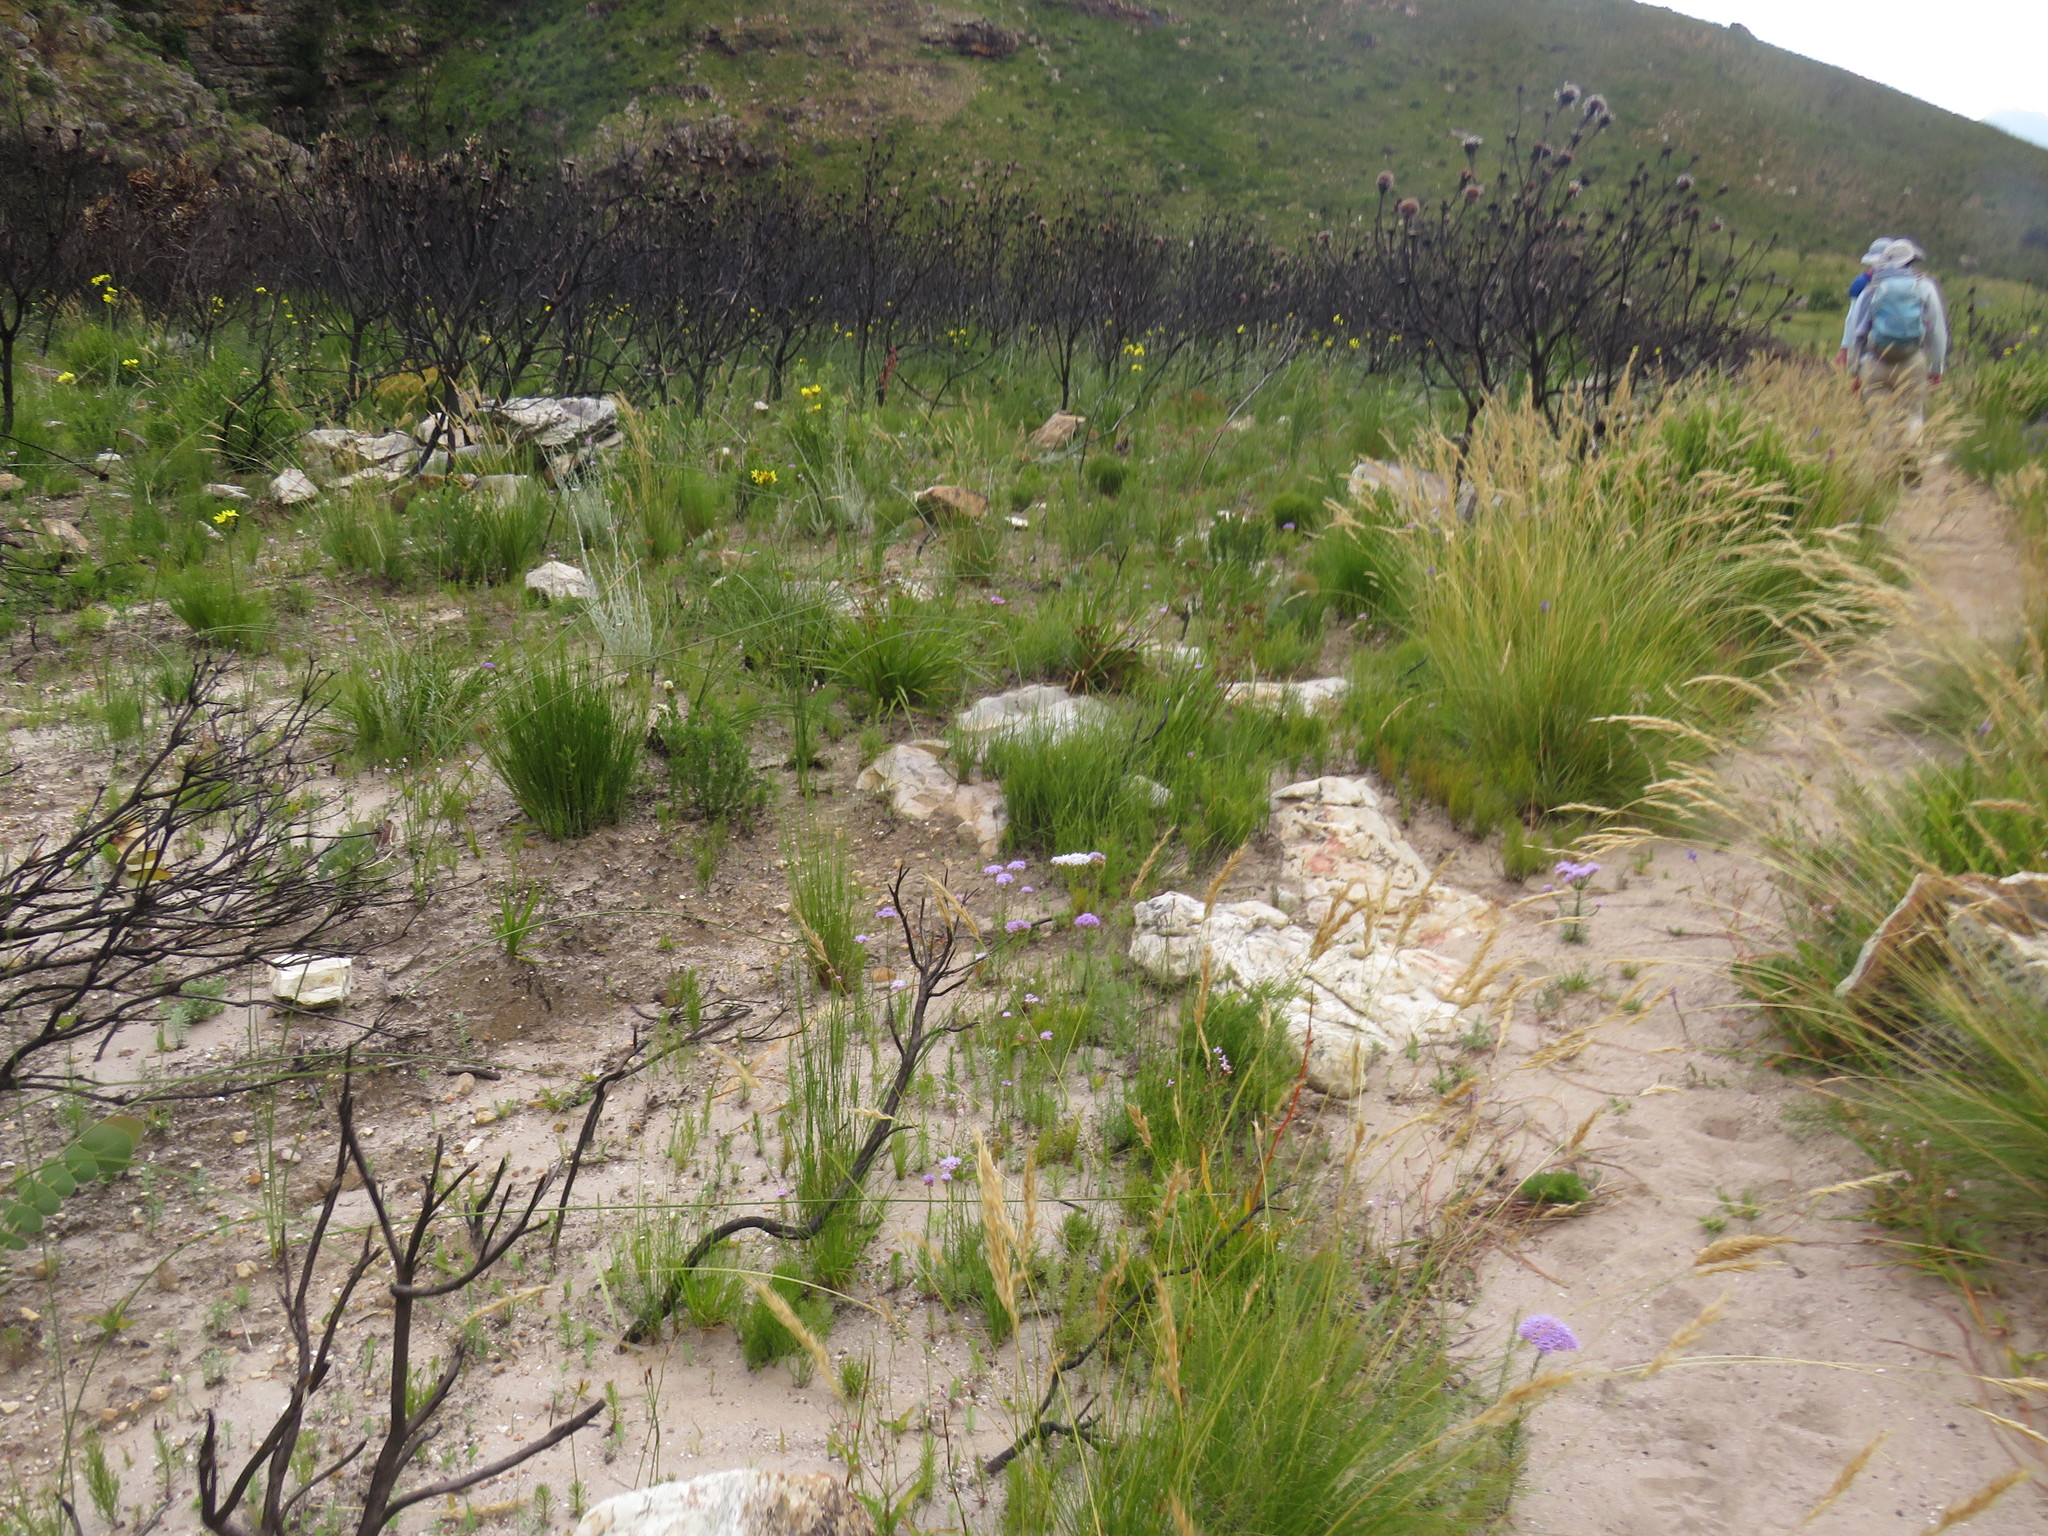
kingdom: Plantae
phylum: Tracheophyta
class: Liliopsida
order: Poales
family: Poaceae
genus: Tenaxia
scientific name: Tenaxia stricta
